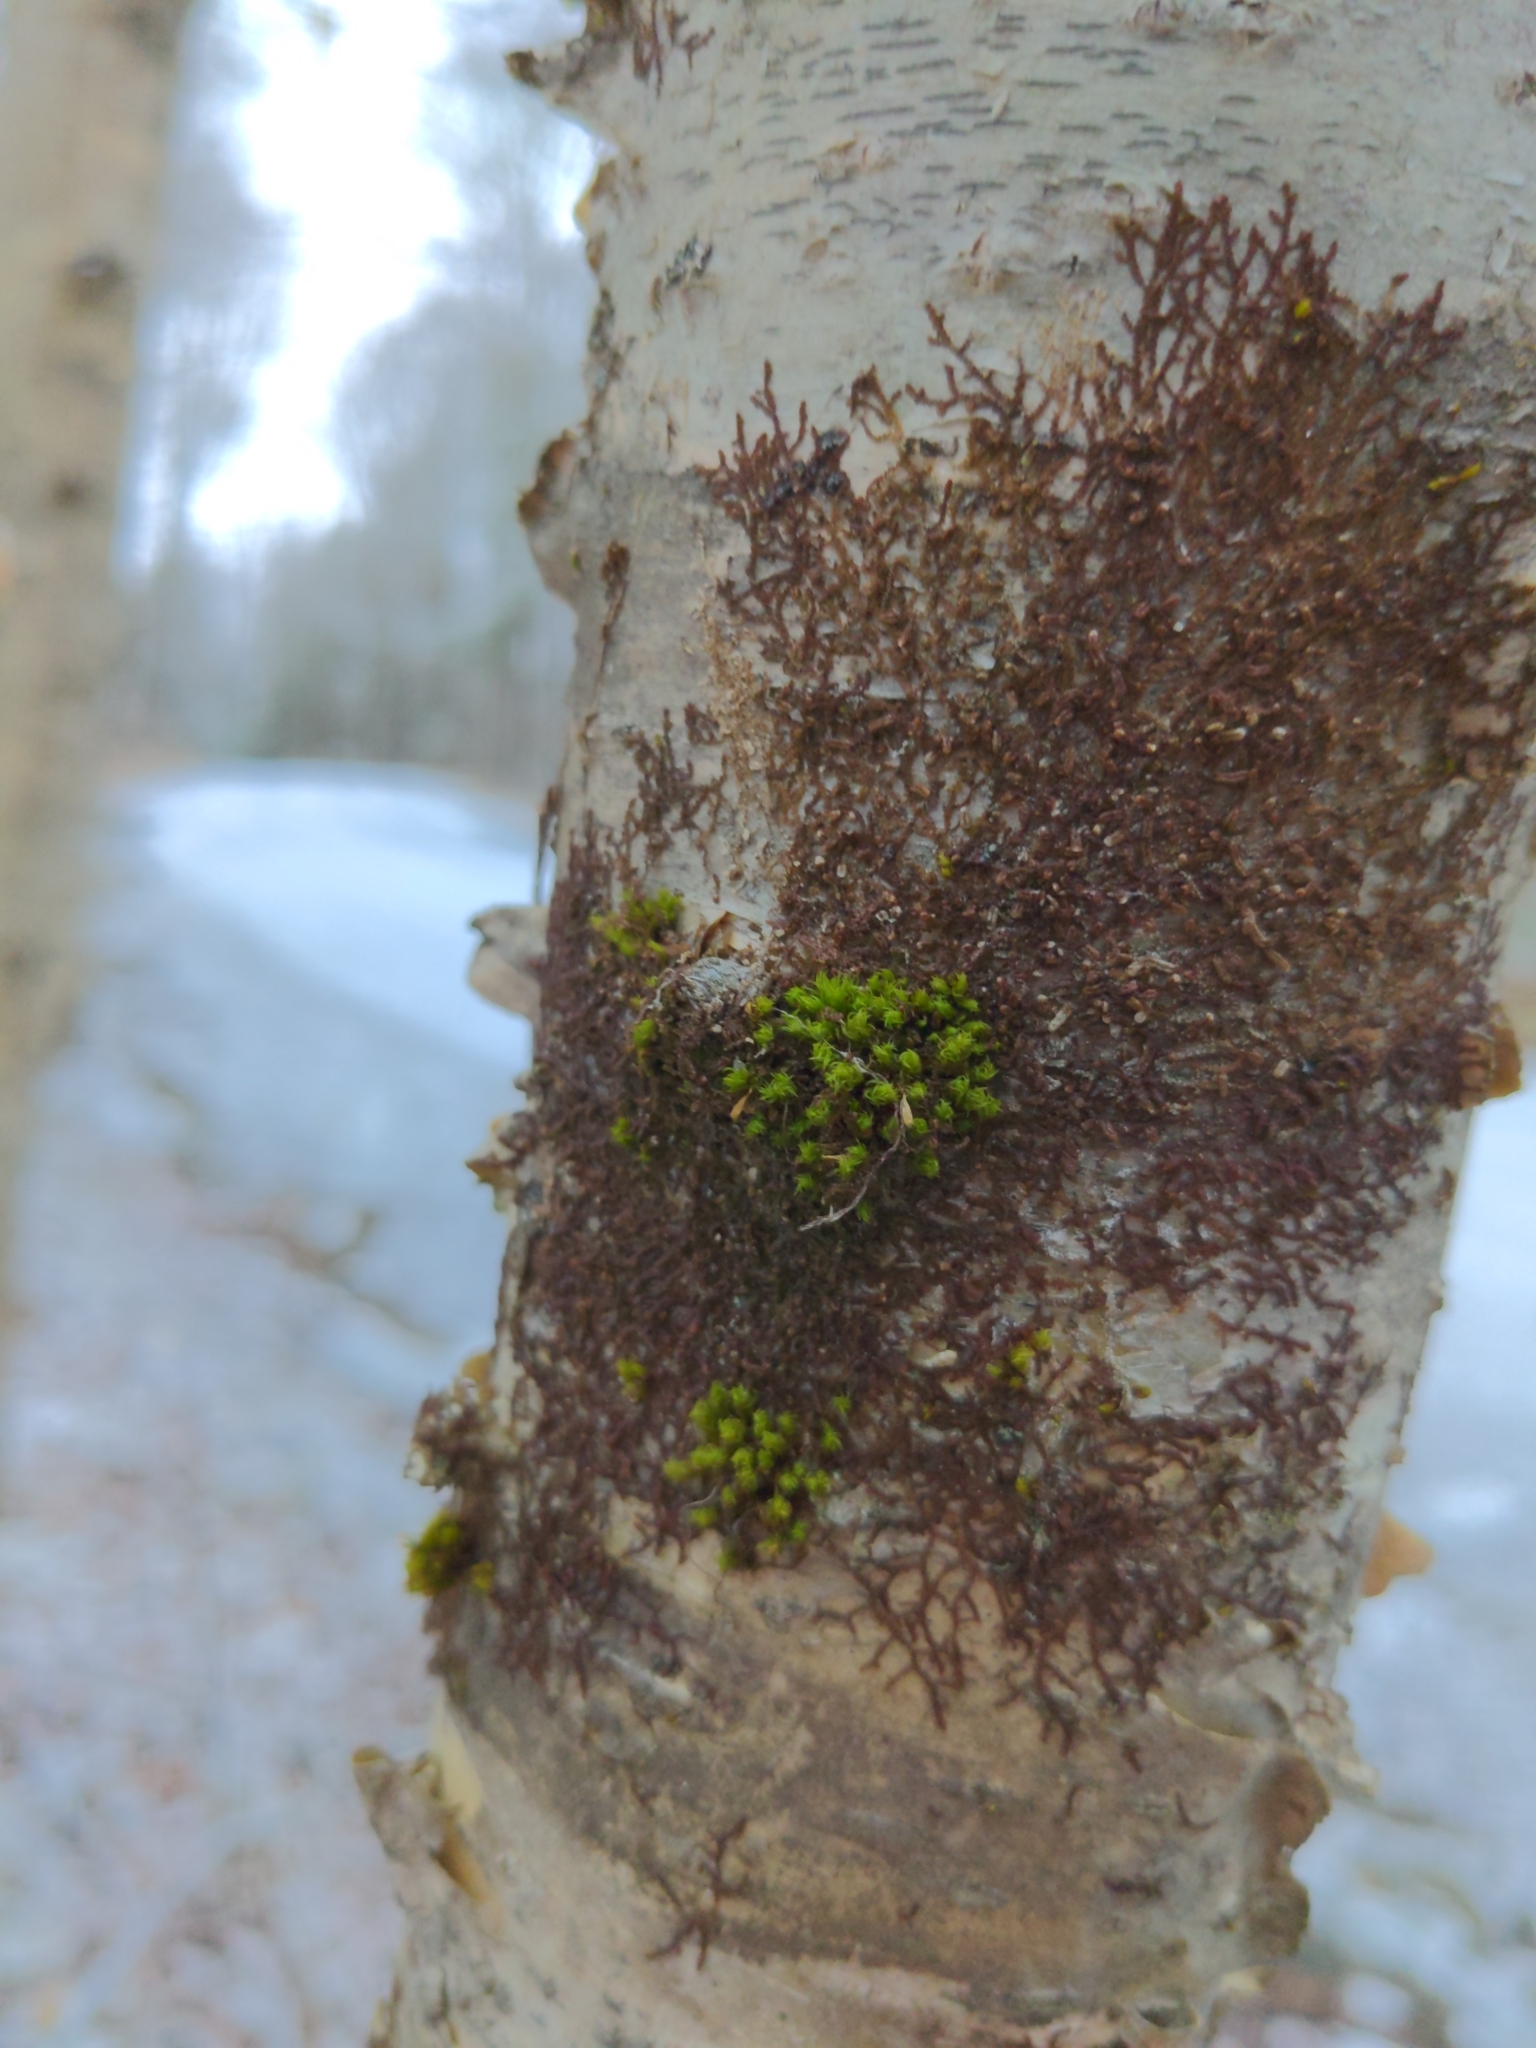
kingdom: Plantae
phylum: Bryophyta
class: Bryopsida
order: Orthotrichales
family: Orthotrichaceae
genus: Ulota
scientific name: Ulota crispa
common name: Crisped pincushion moss
